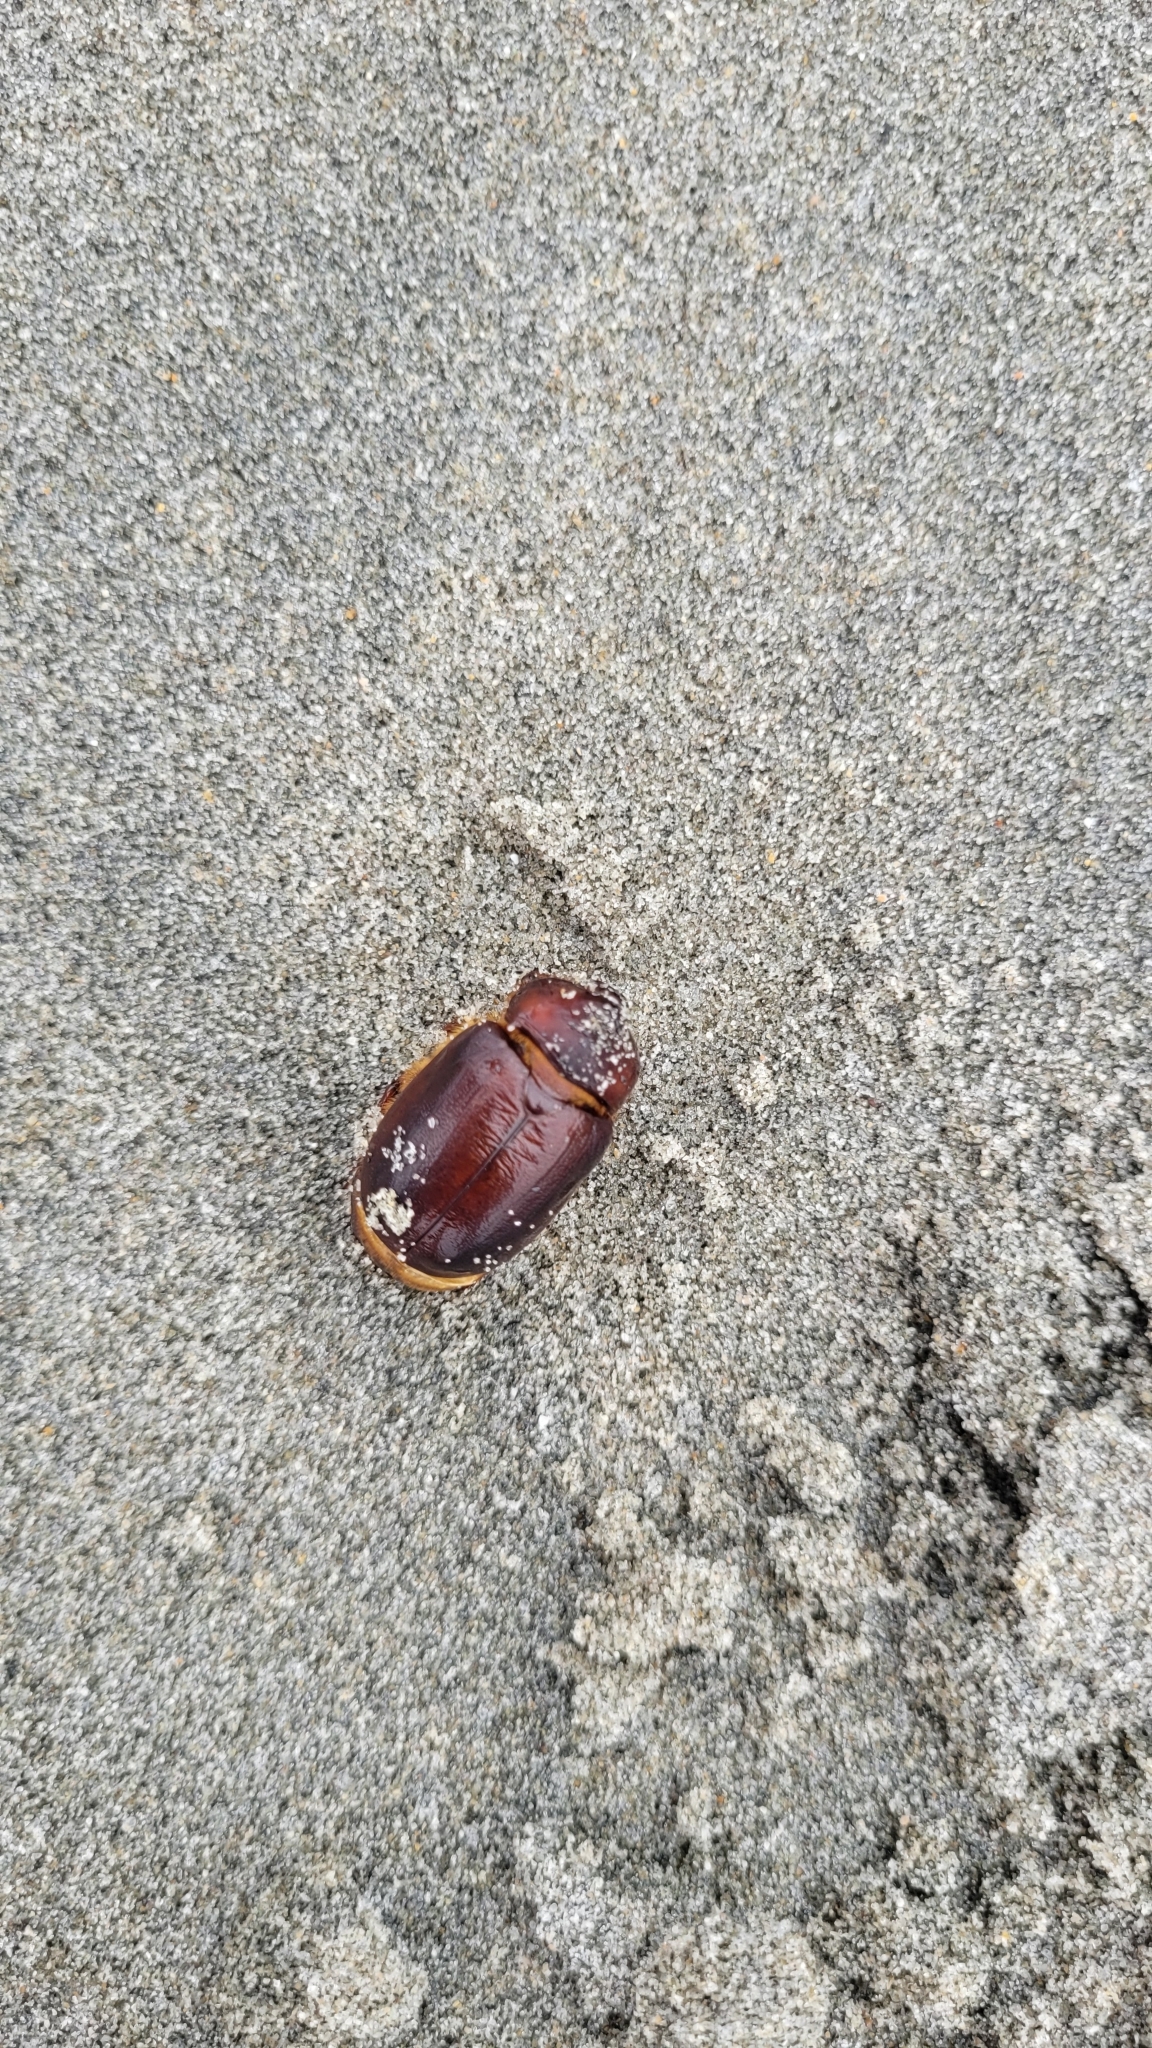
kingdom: Animalia
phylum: Arthropoda
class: Insecta
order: Coleoptera
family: Scarabaeidae
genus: Pericoptus
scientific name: Pericoptus truncatus
